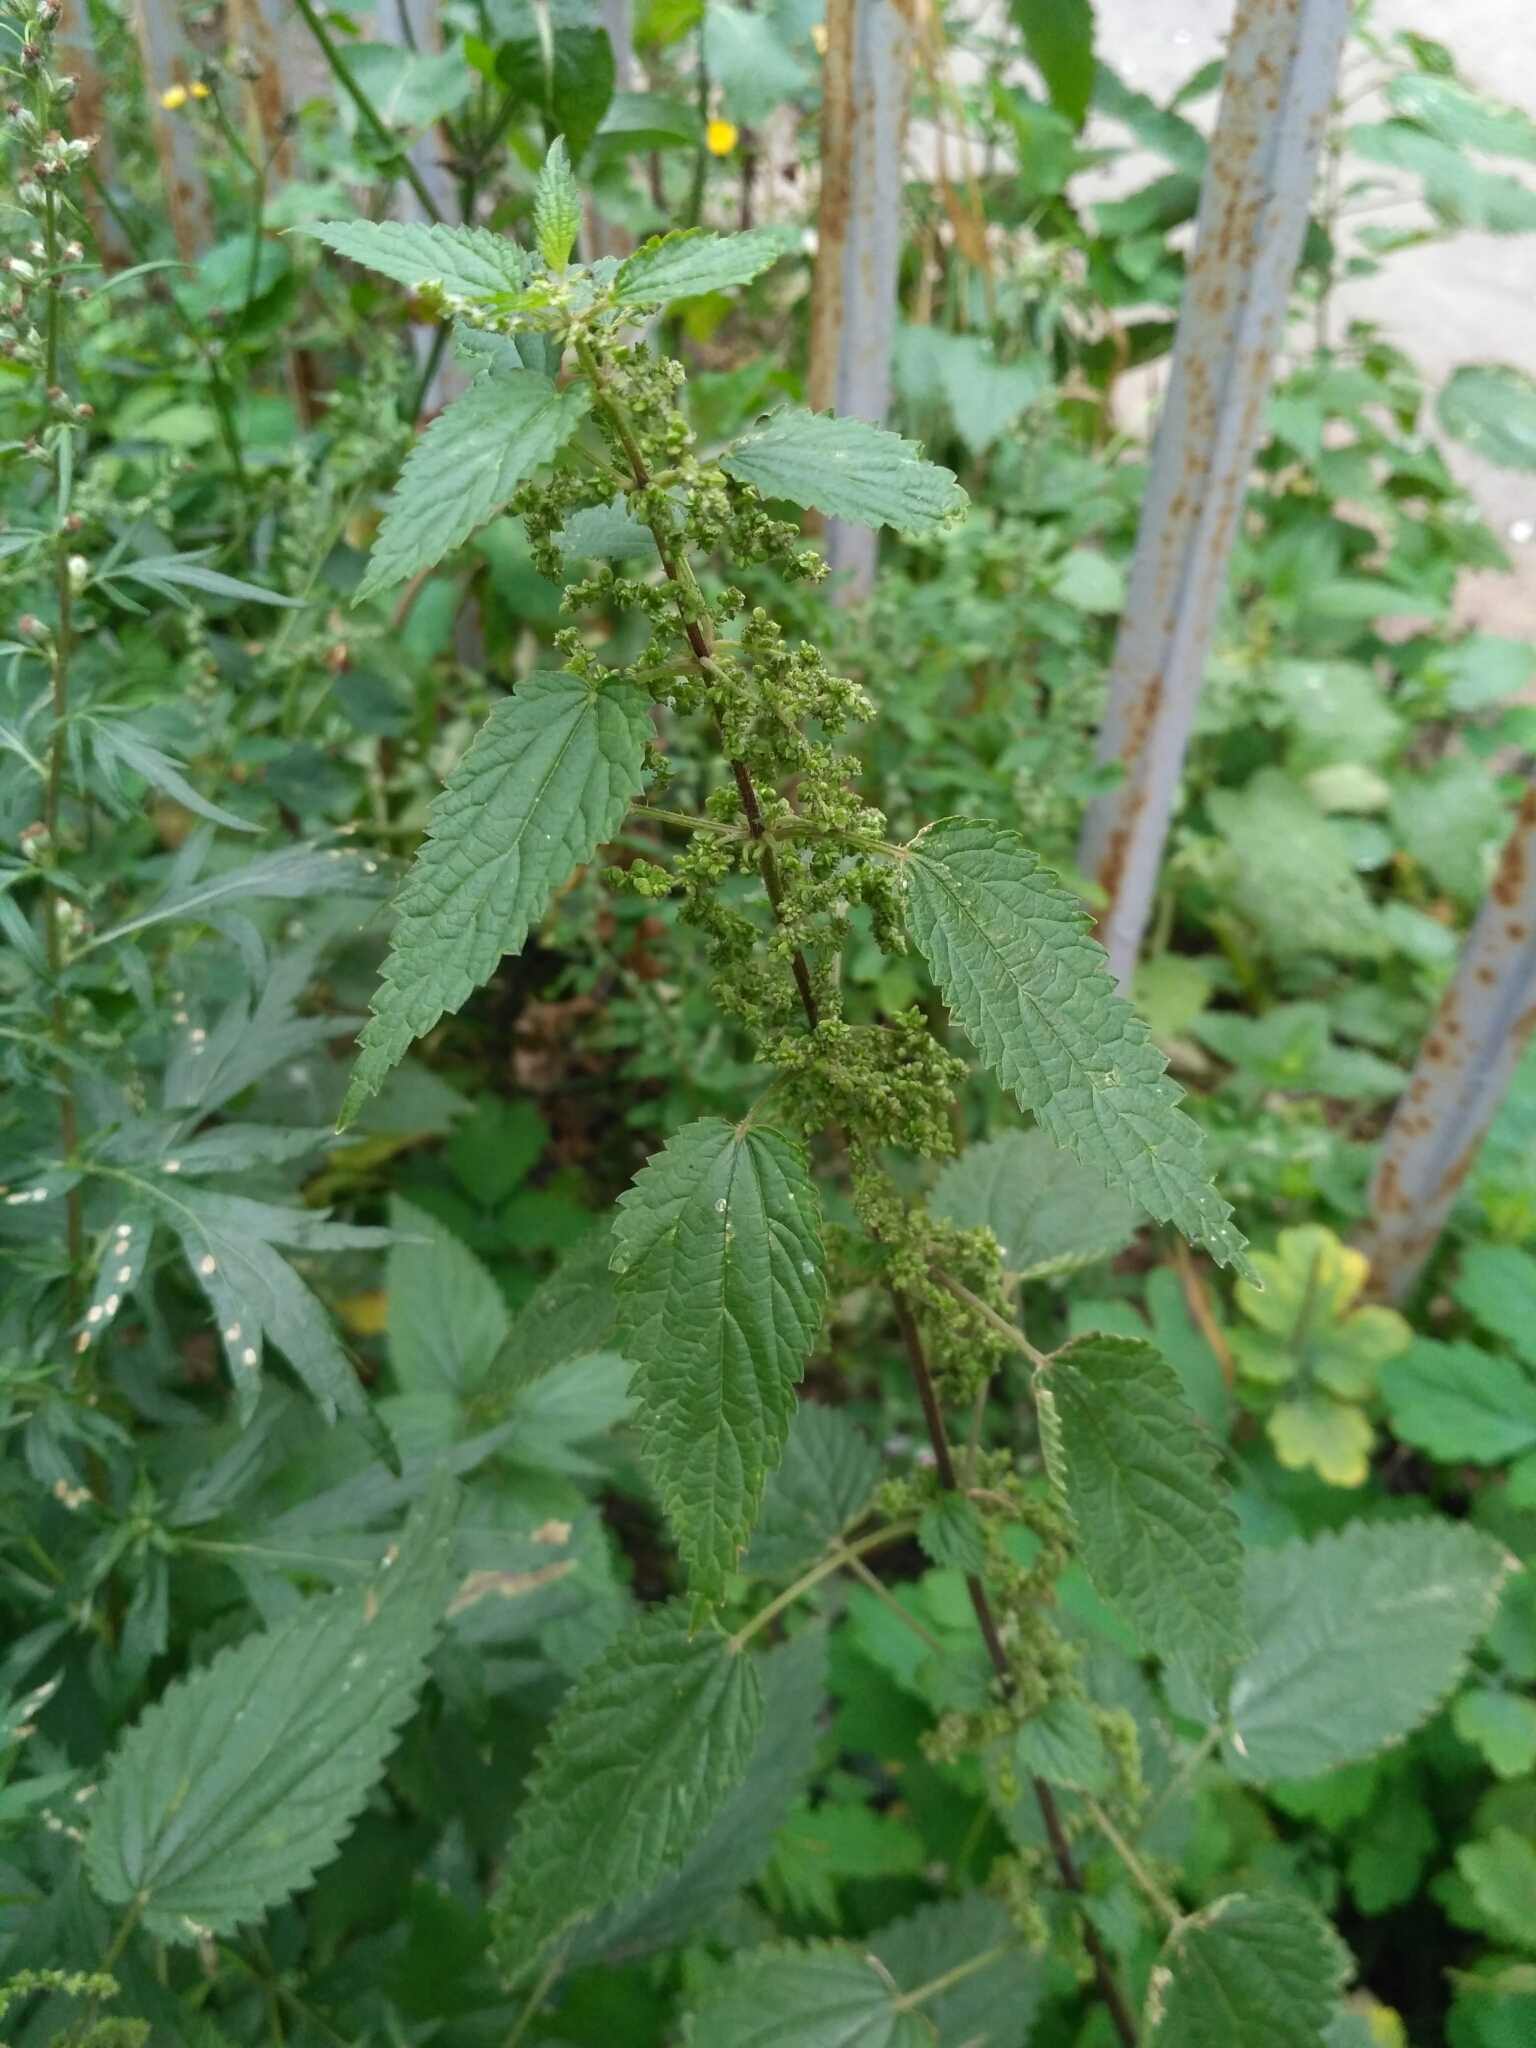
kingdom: Plantae
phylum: Tracheophyta
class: Magnoliopsida
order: Rosales
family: Urticaceae
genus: Urtica
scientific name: Urtica dioica
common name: Common nettle
